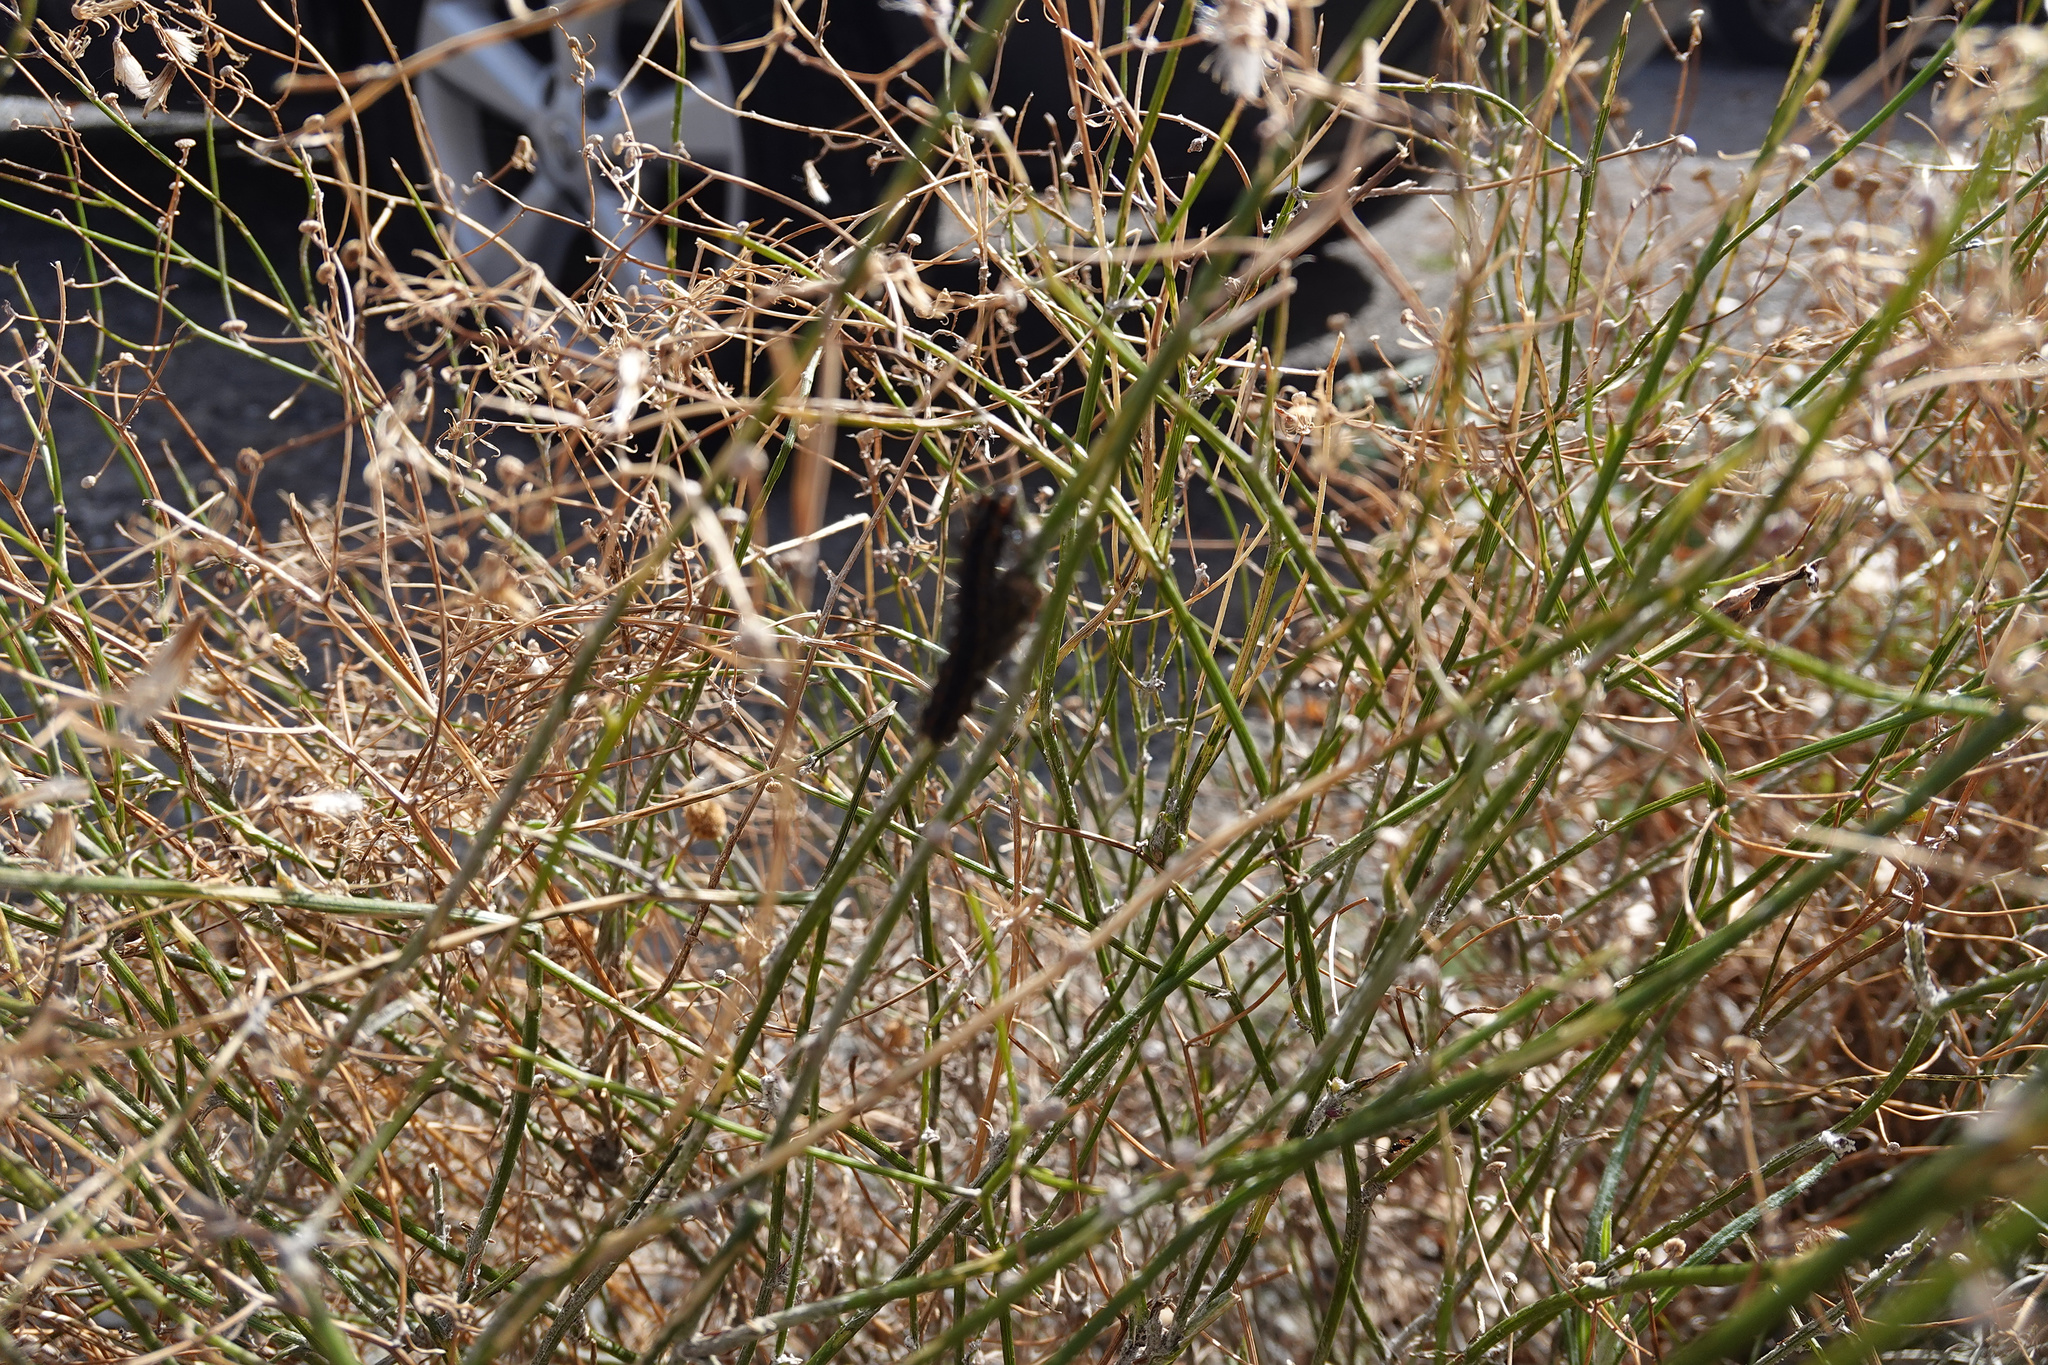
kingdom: Animalia
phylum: Arthropoda
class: Insecta
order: Lepidoptera
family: Erebidae
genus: Nyctemera
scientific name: Nyctemera annulatum
